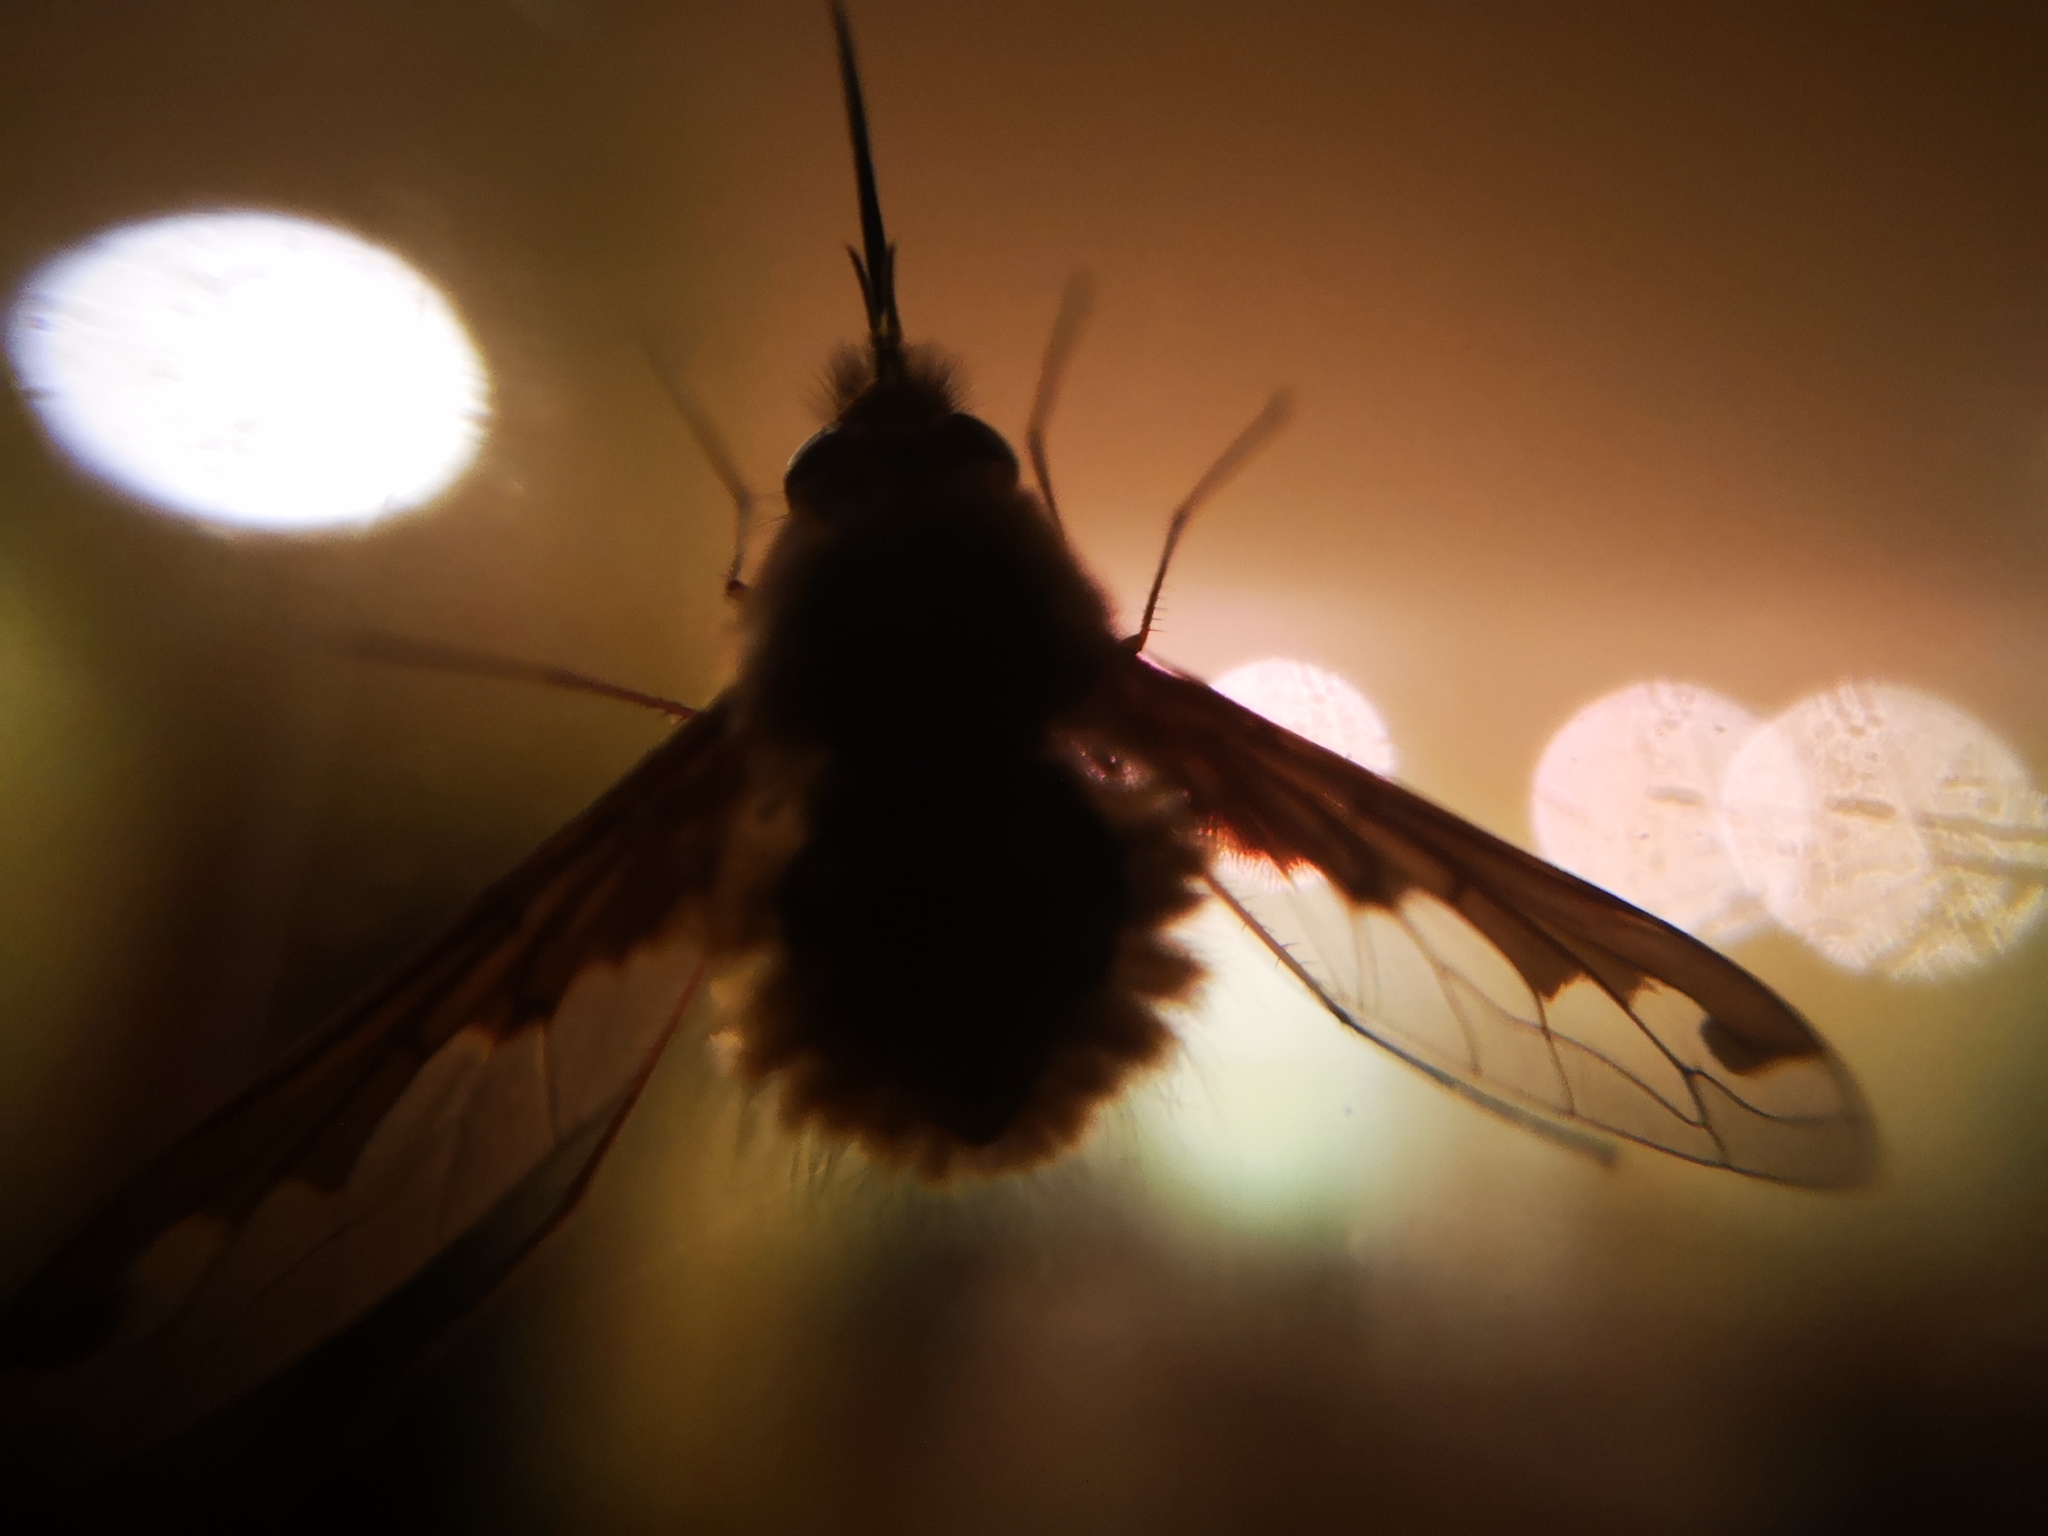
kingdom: Animalia
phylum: Arthropoda
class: Insecta
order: Diptera
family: Bombyliidae
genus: Bombylius
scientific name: Bombylius major
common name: Bee fly
